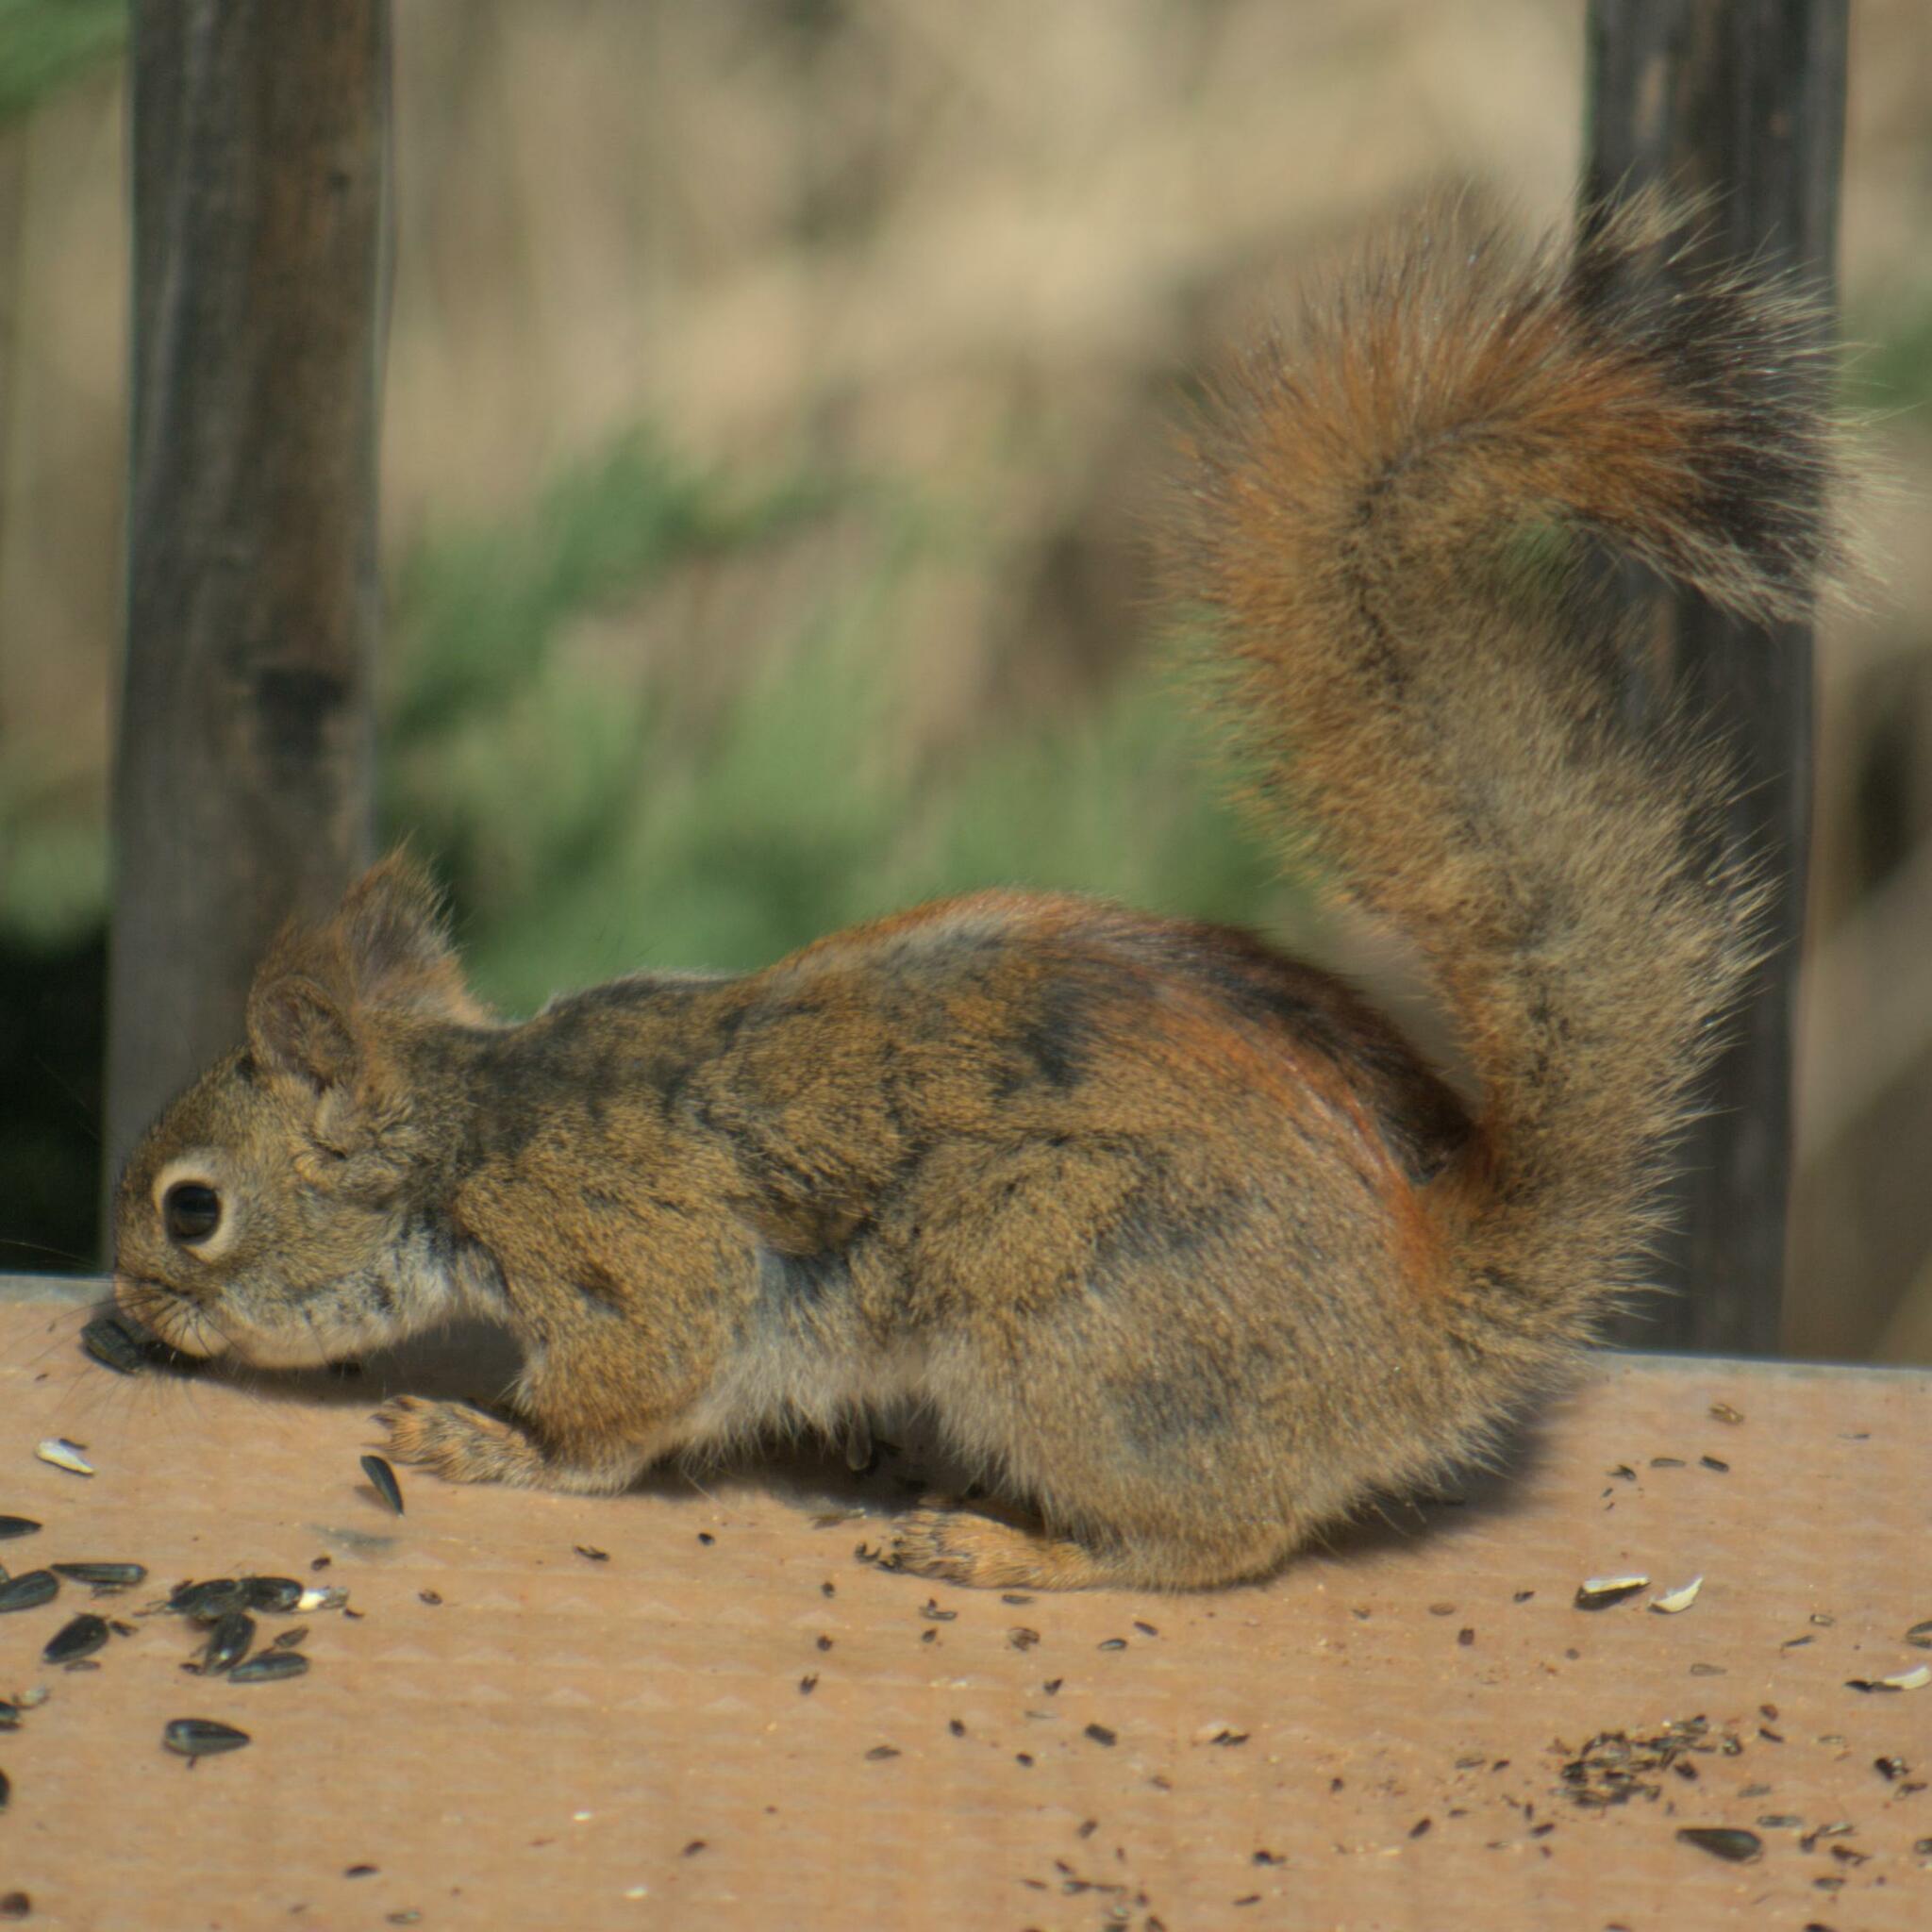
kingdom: Animalia
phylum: Chordata
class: Mammalia
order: Rodentia
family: Sciuridae
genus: Tamiasciurus
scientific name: Tamiasciurus hudsonicus
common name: Red squirrel
